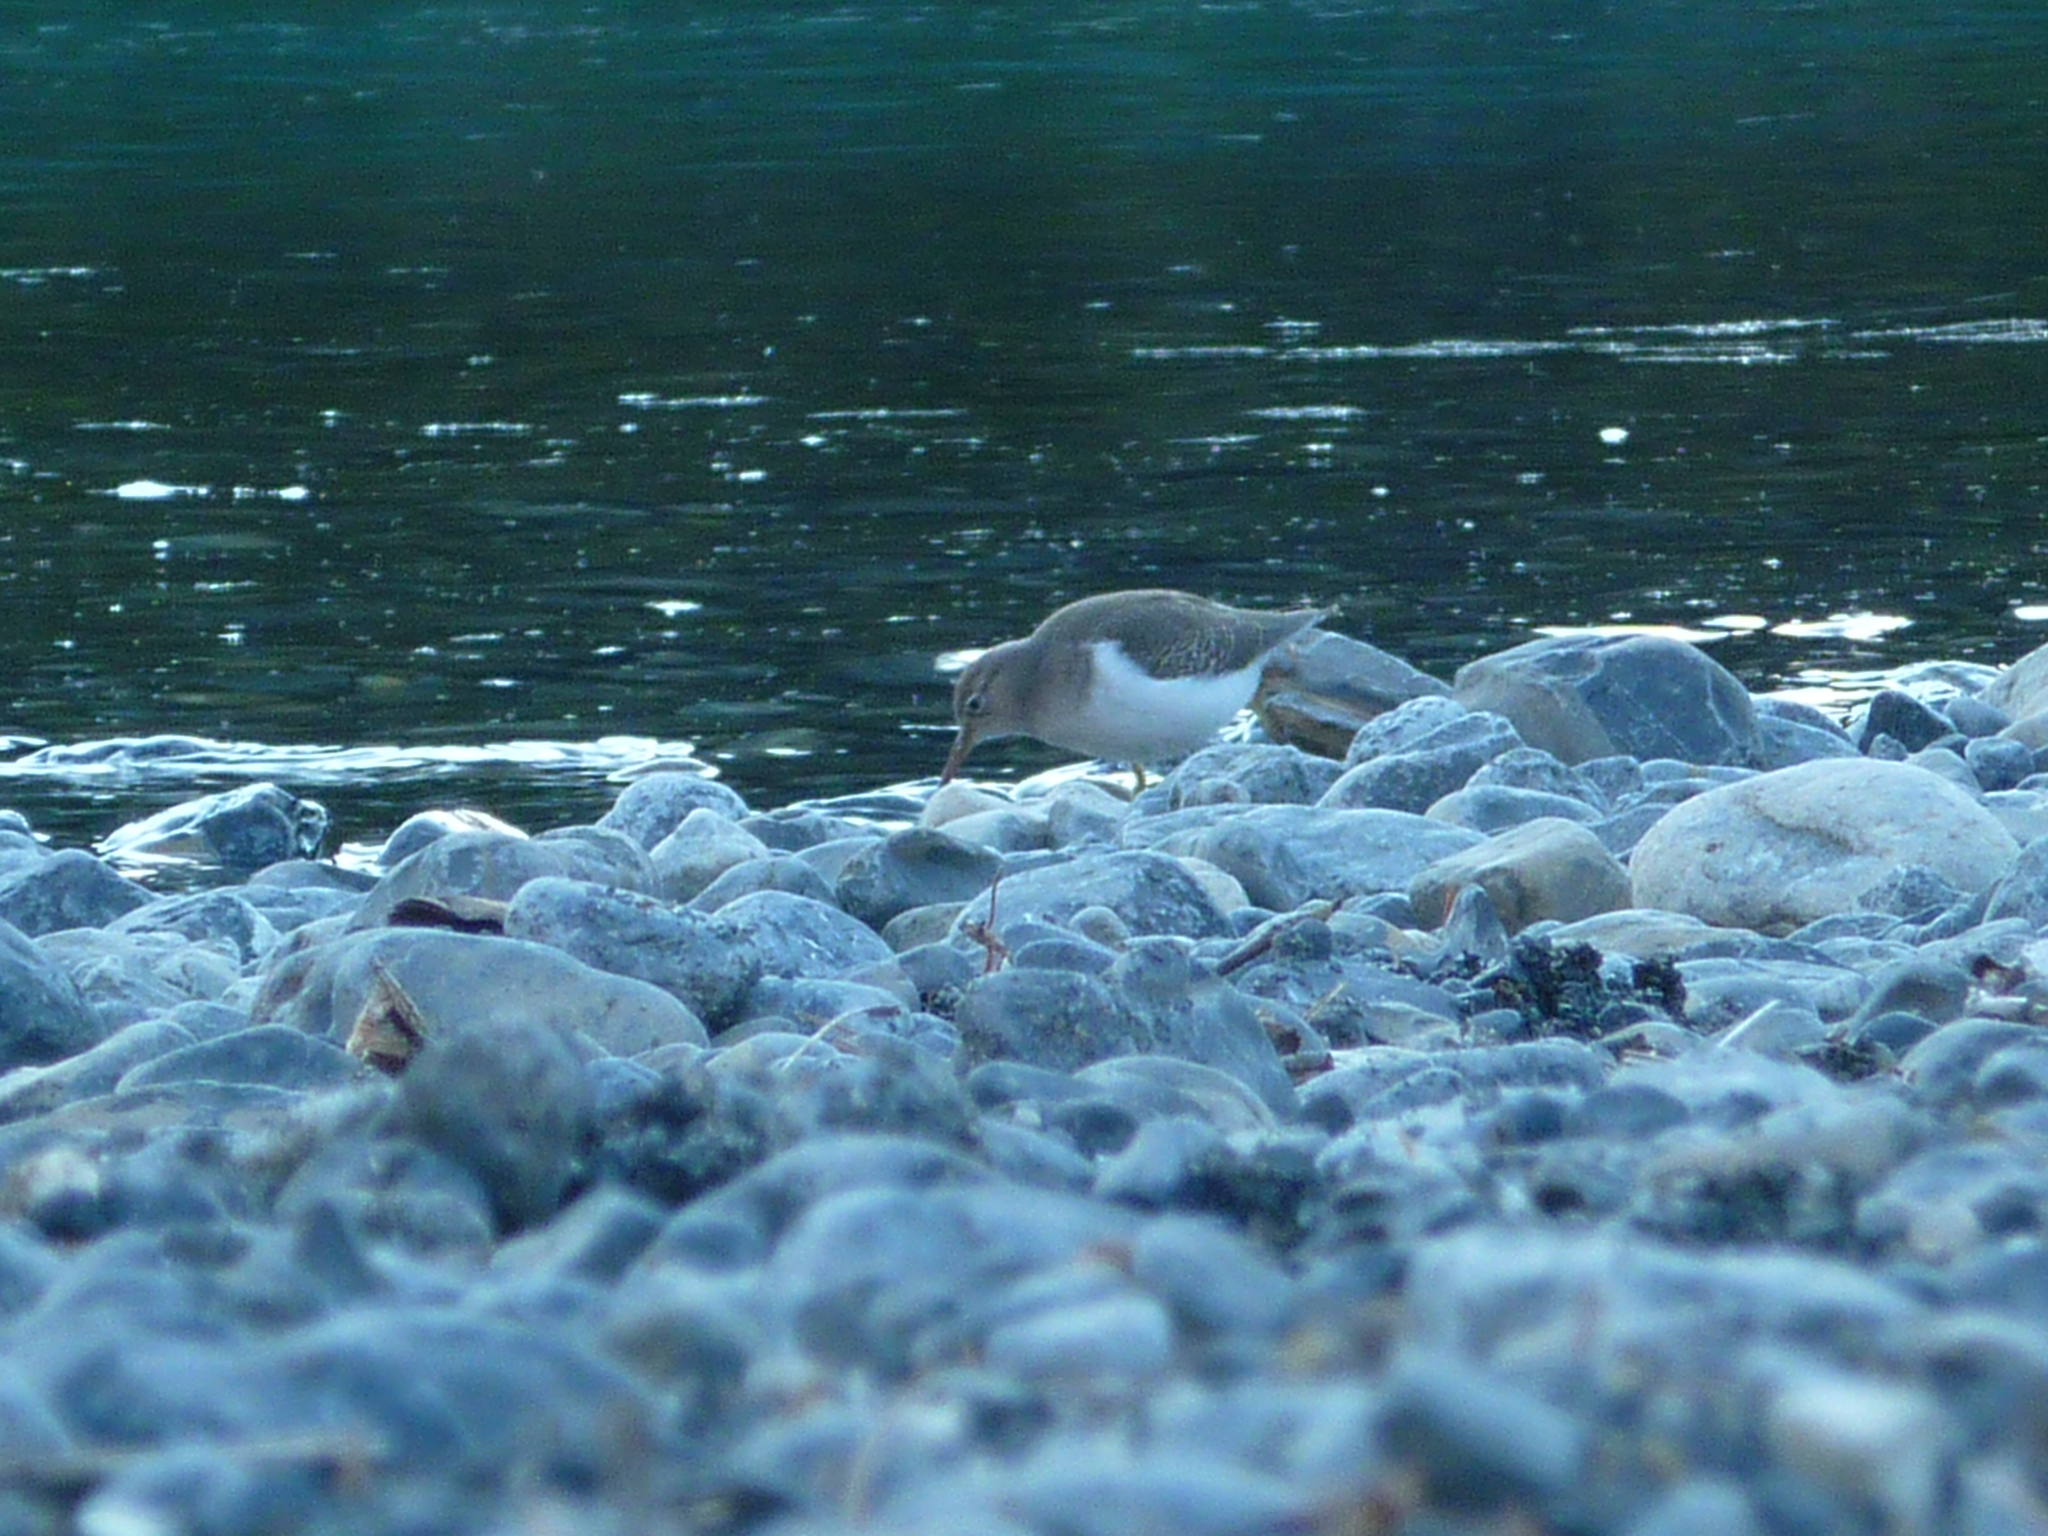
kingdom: Animalia
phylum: Chordata
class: Aves
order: Charadriiformes
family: Scolopacidae
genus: Actitis
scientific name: Actitis macularius
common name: Spotted sandpiper
